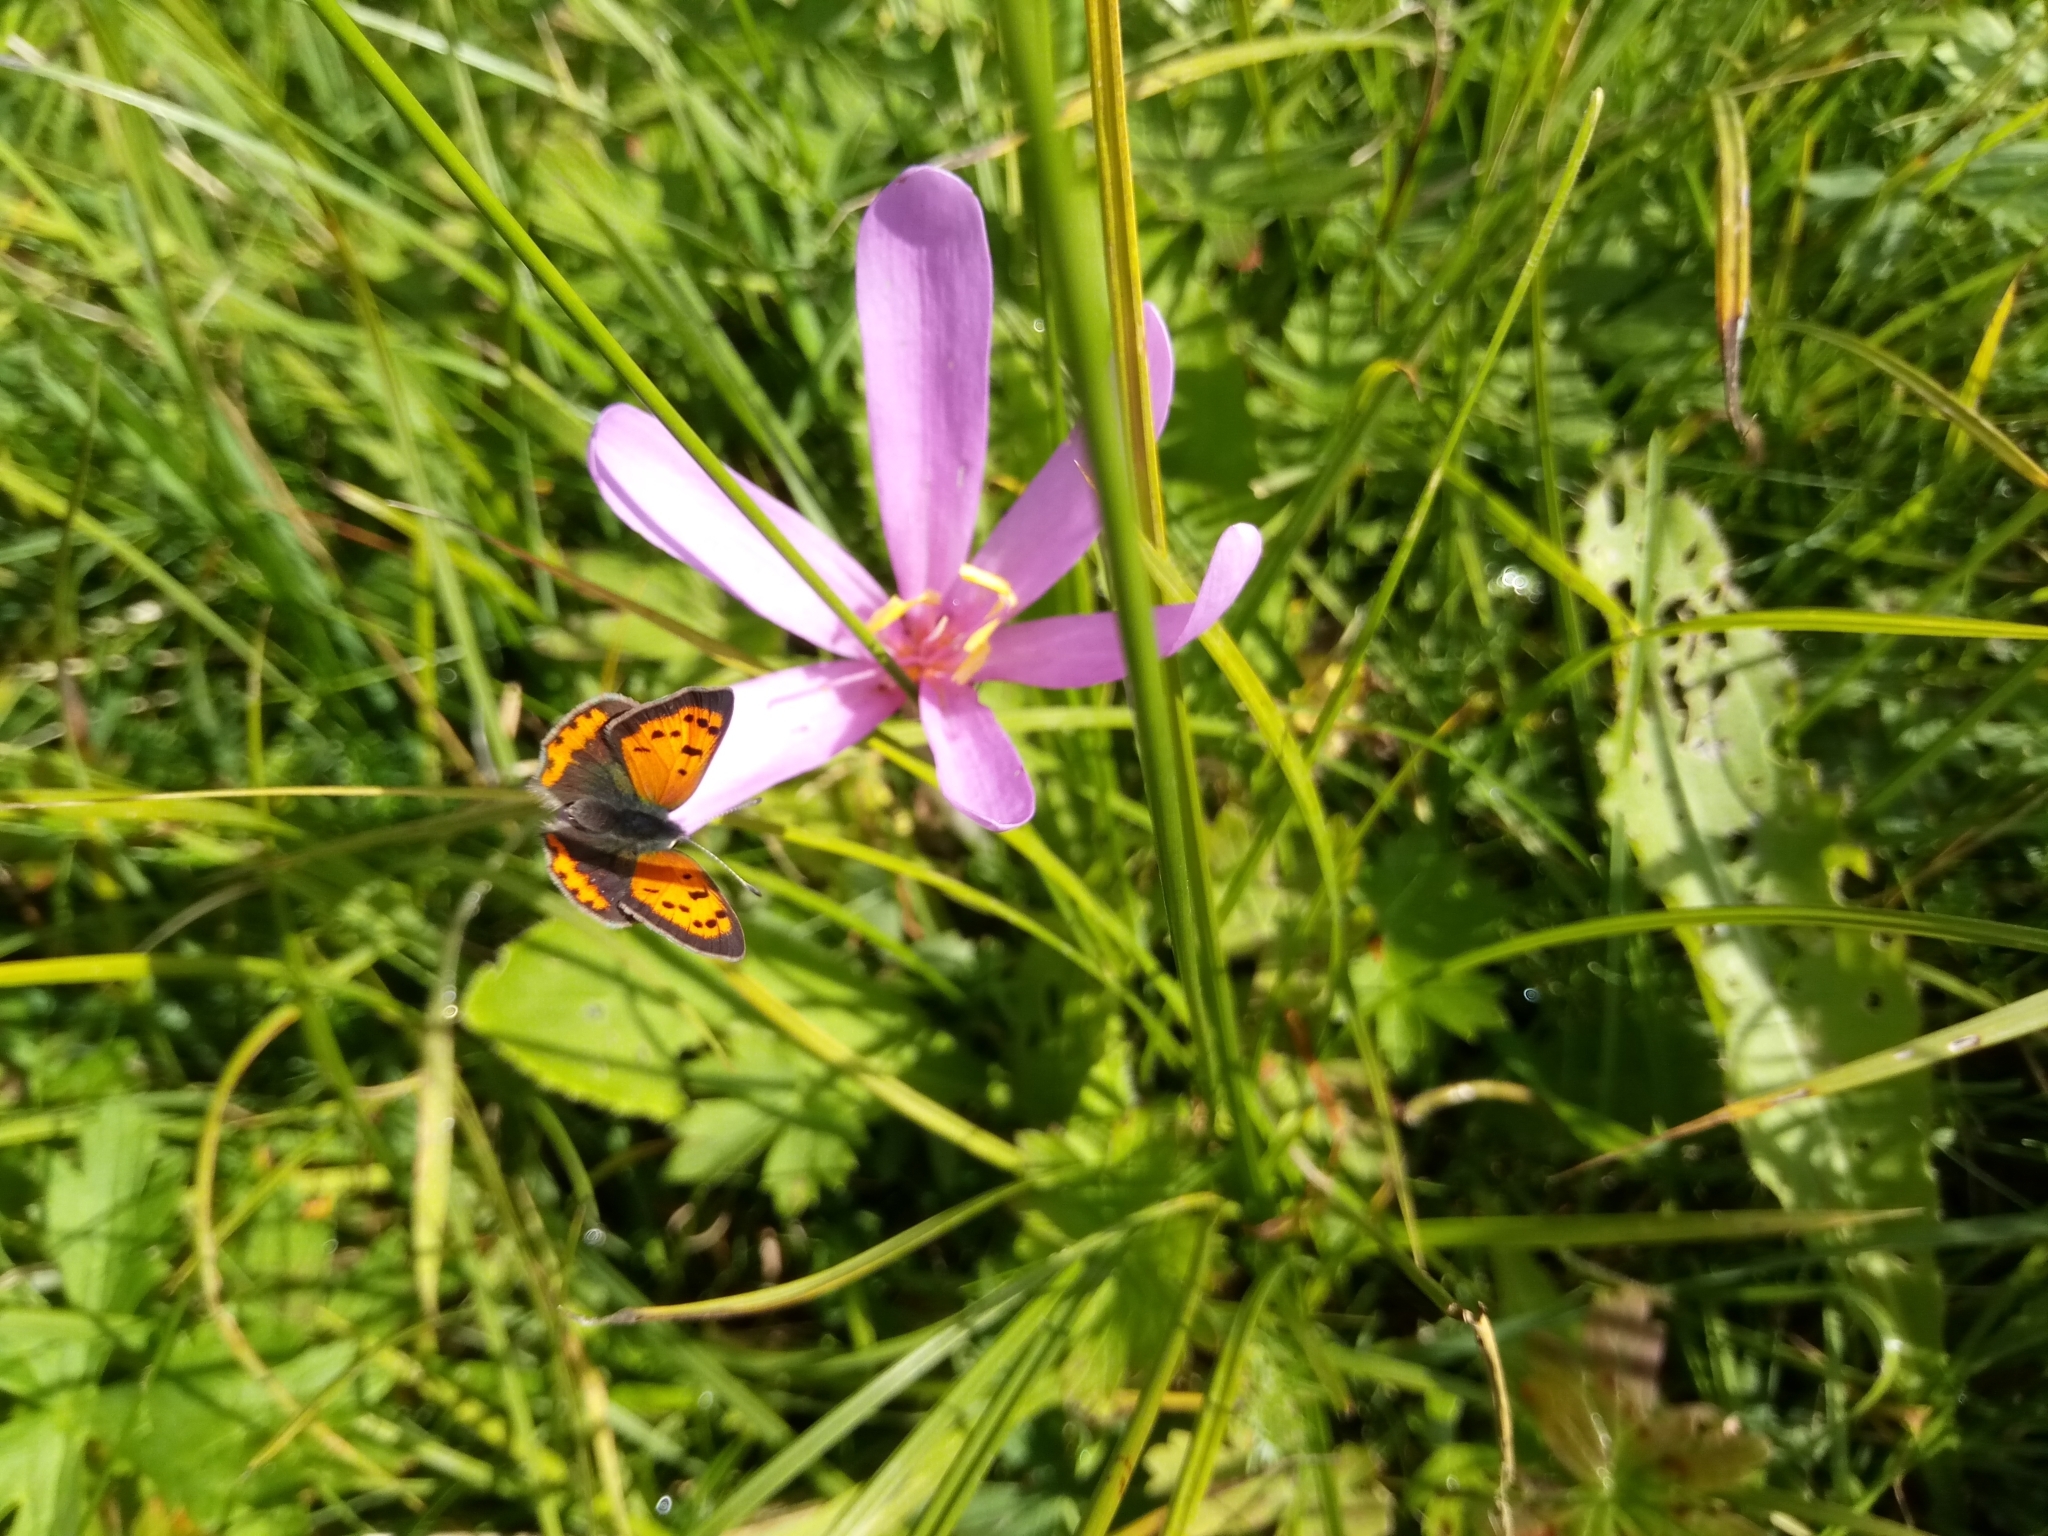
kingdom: Animalia
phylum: Arthropoda
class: Insecta
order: Lepidoptera
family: Lycaenidae
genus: Lycaena
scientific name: Lycaena phlaeas
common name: Small copper
